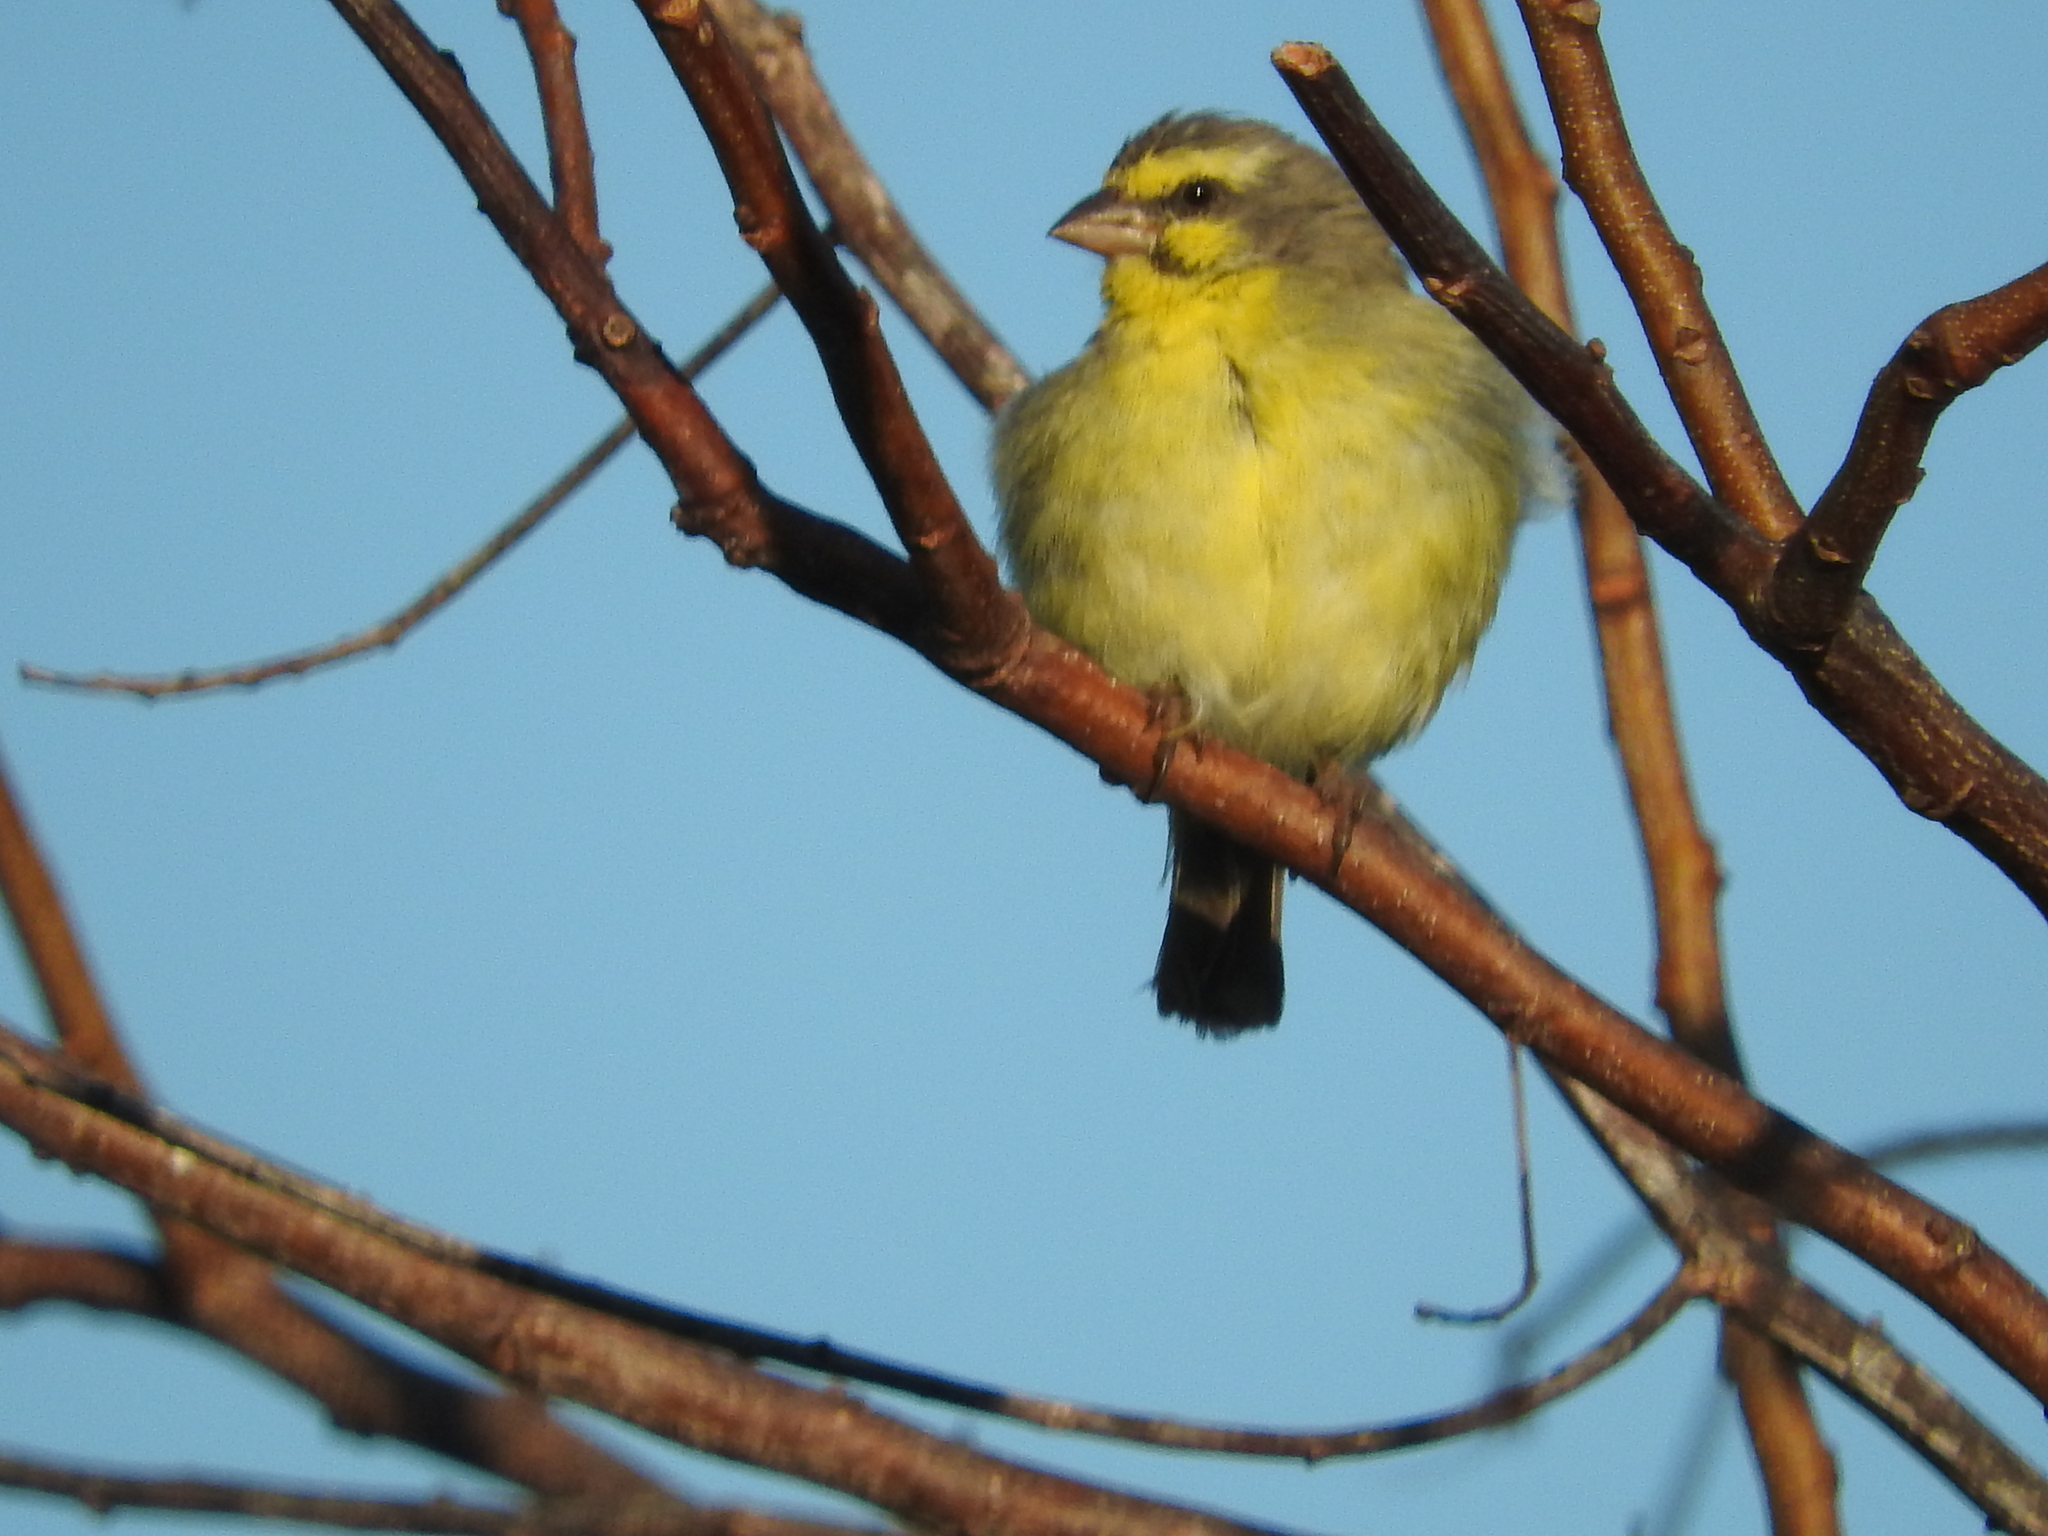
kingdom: Animalia
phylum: Chordata
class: Aves
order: Passeriformes
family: Fringillidae
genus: Crithagra
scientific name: Crithagra mozambica
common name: Yellow-fronted canary
